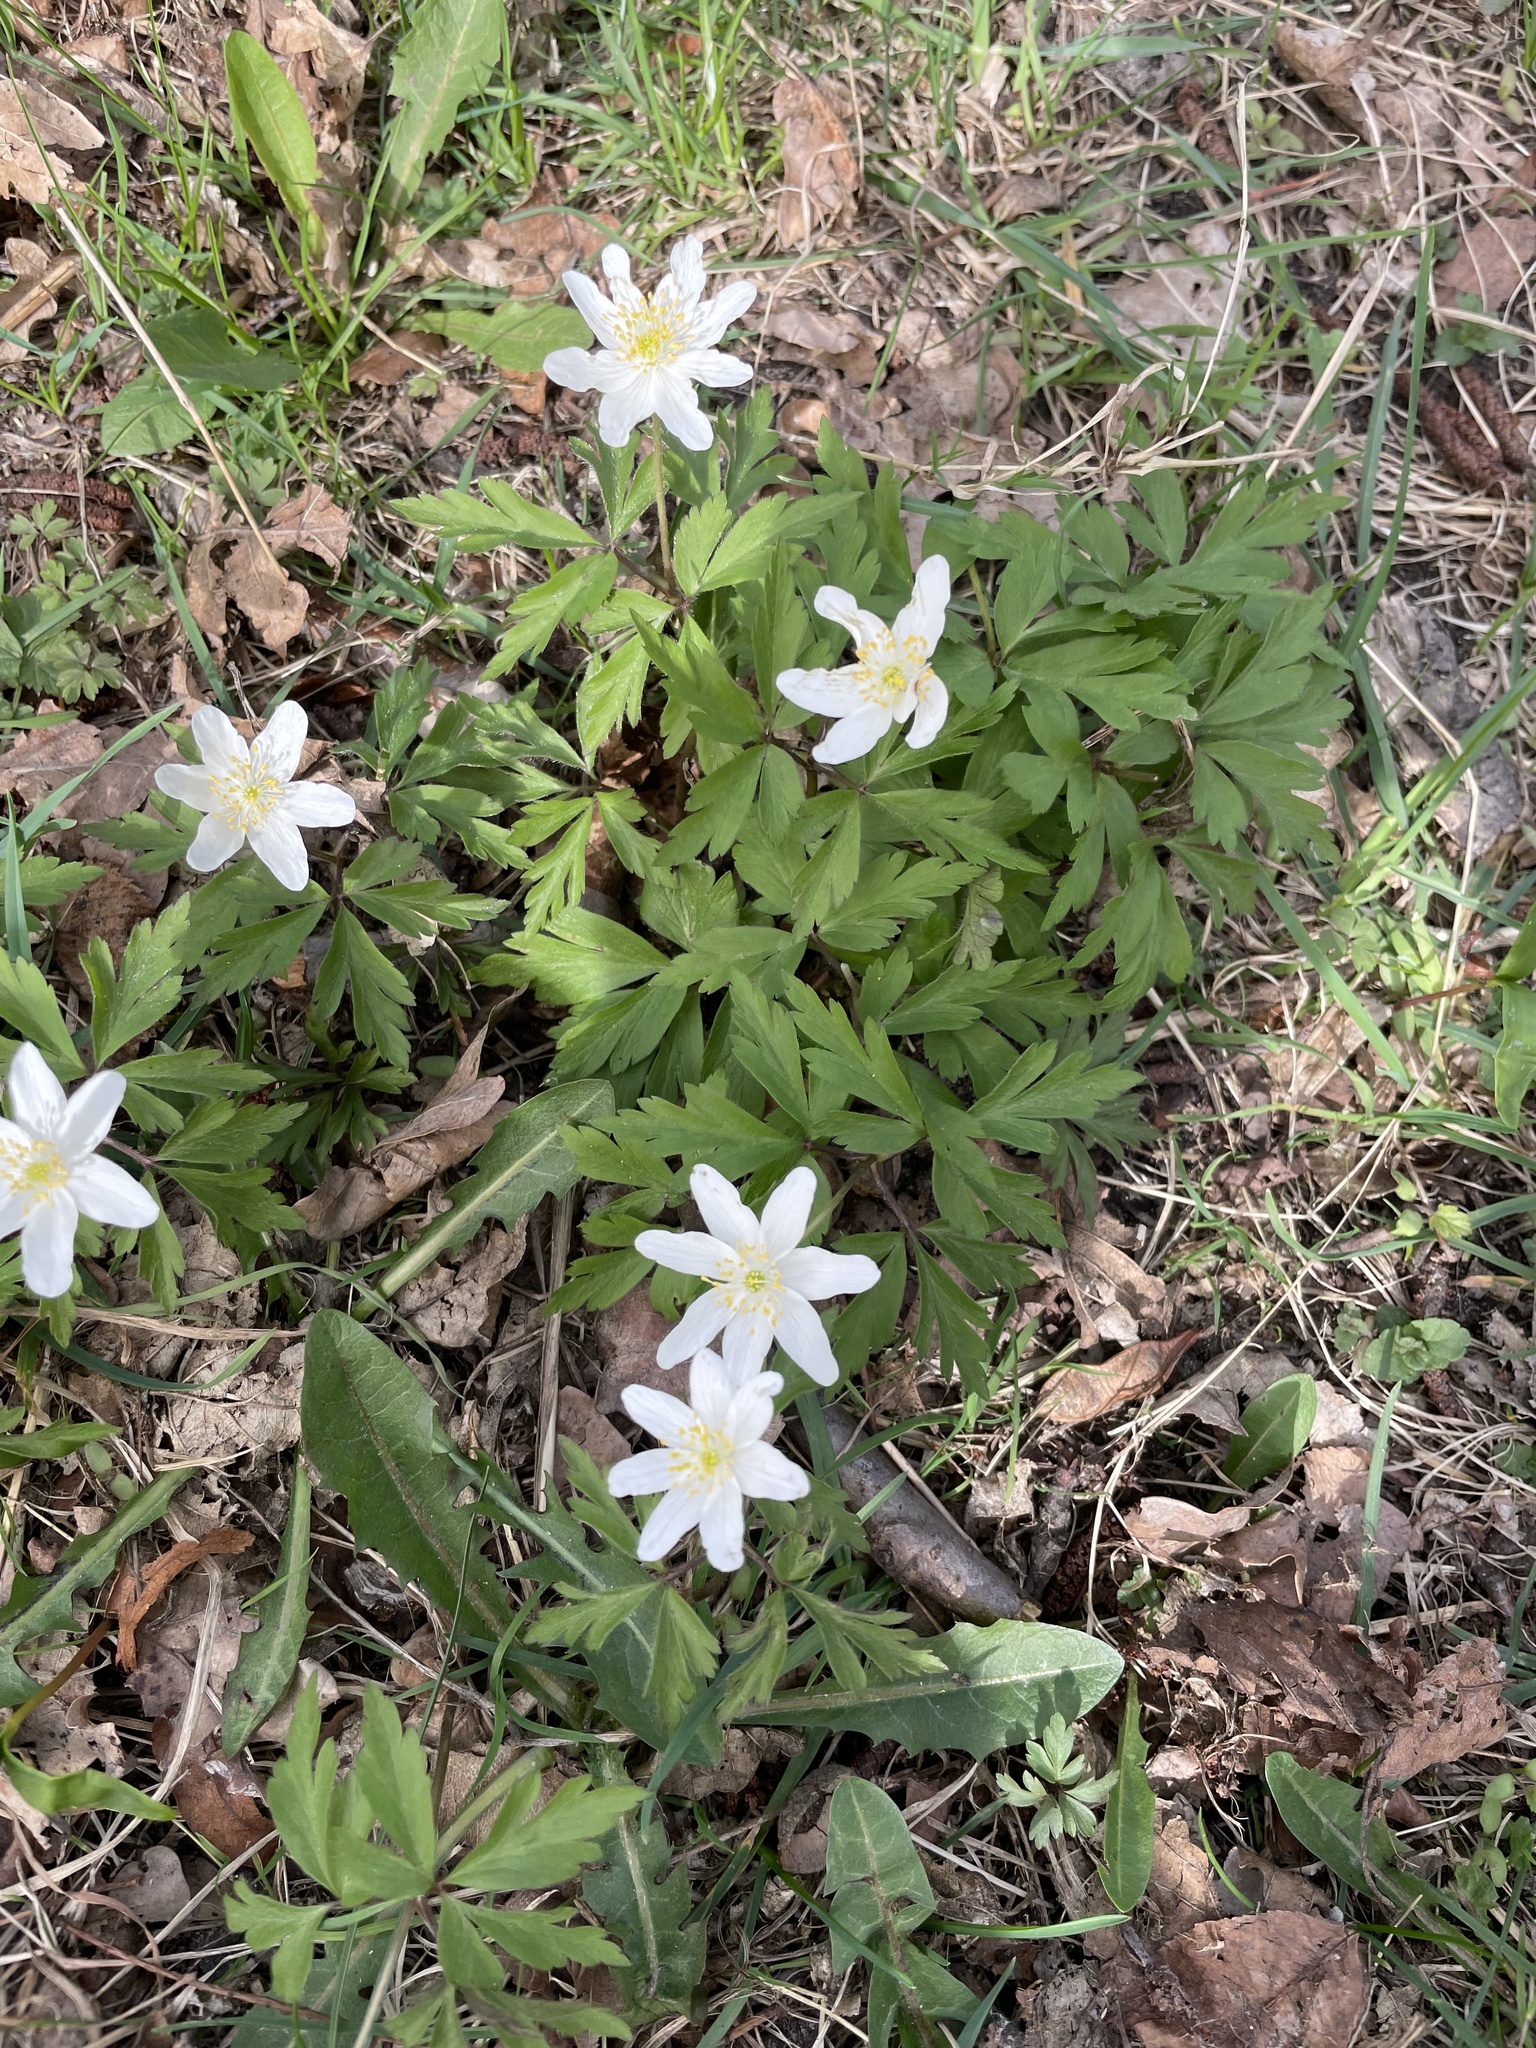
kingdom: Plantae
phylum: Tracheophyta
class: Magnoliopsida
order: Ranunculales
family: Ranunculaceae
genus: Anemone
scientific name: Anemone nemorosa
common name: Wood anemone
